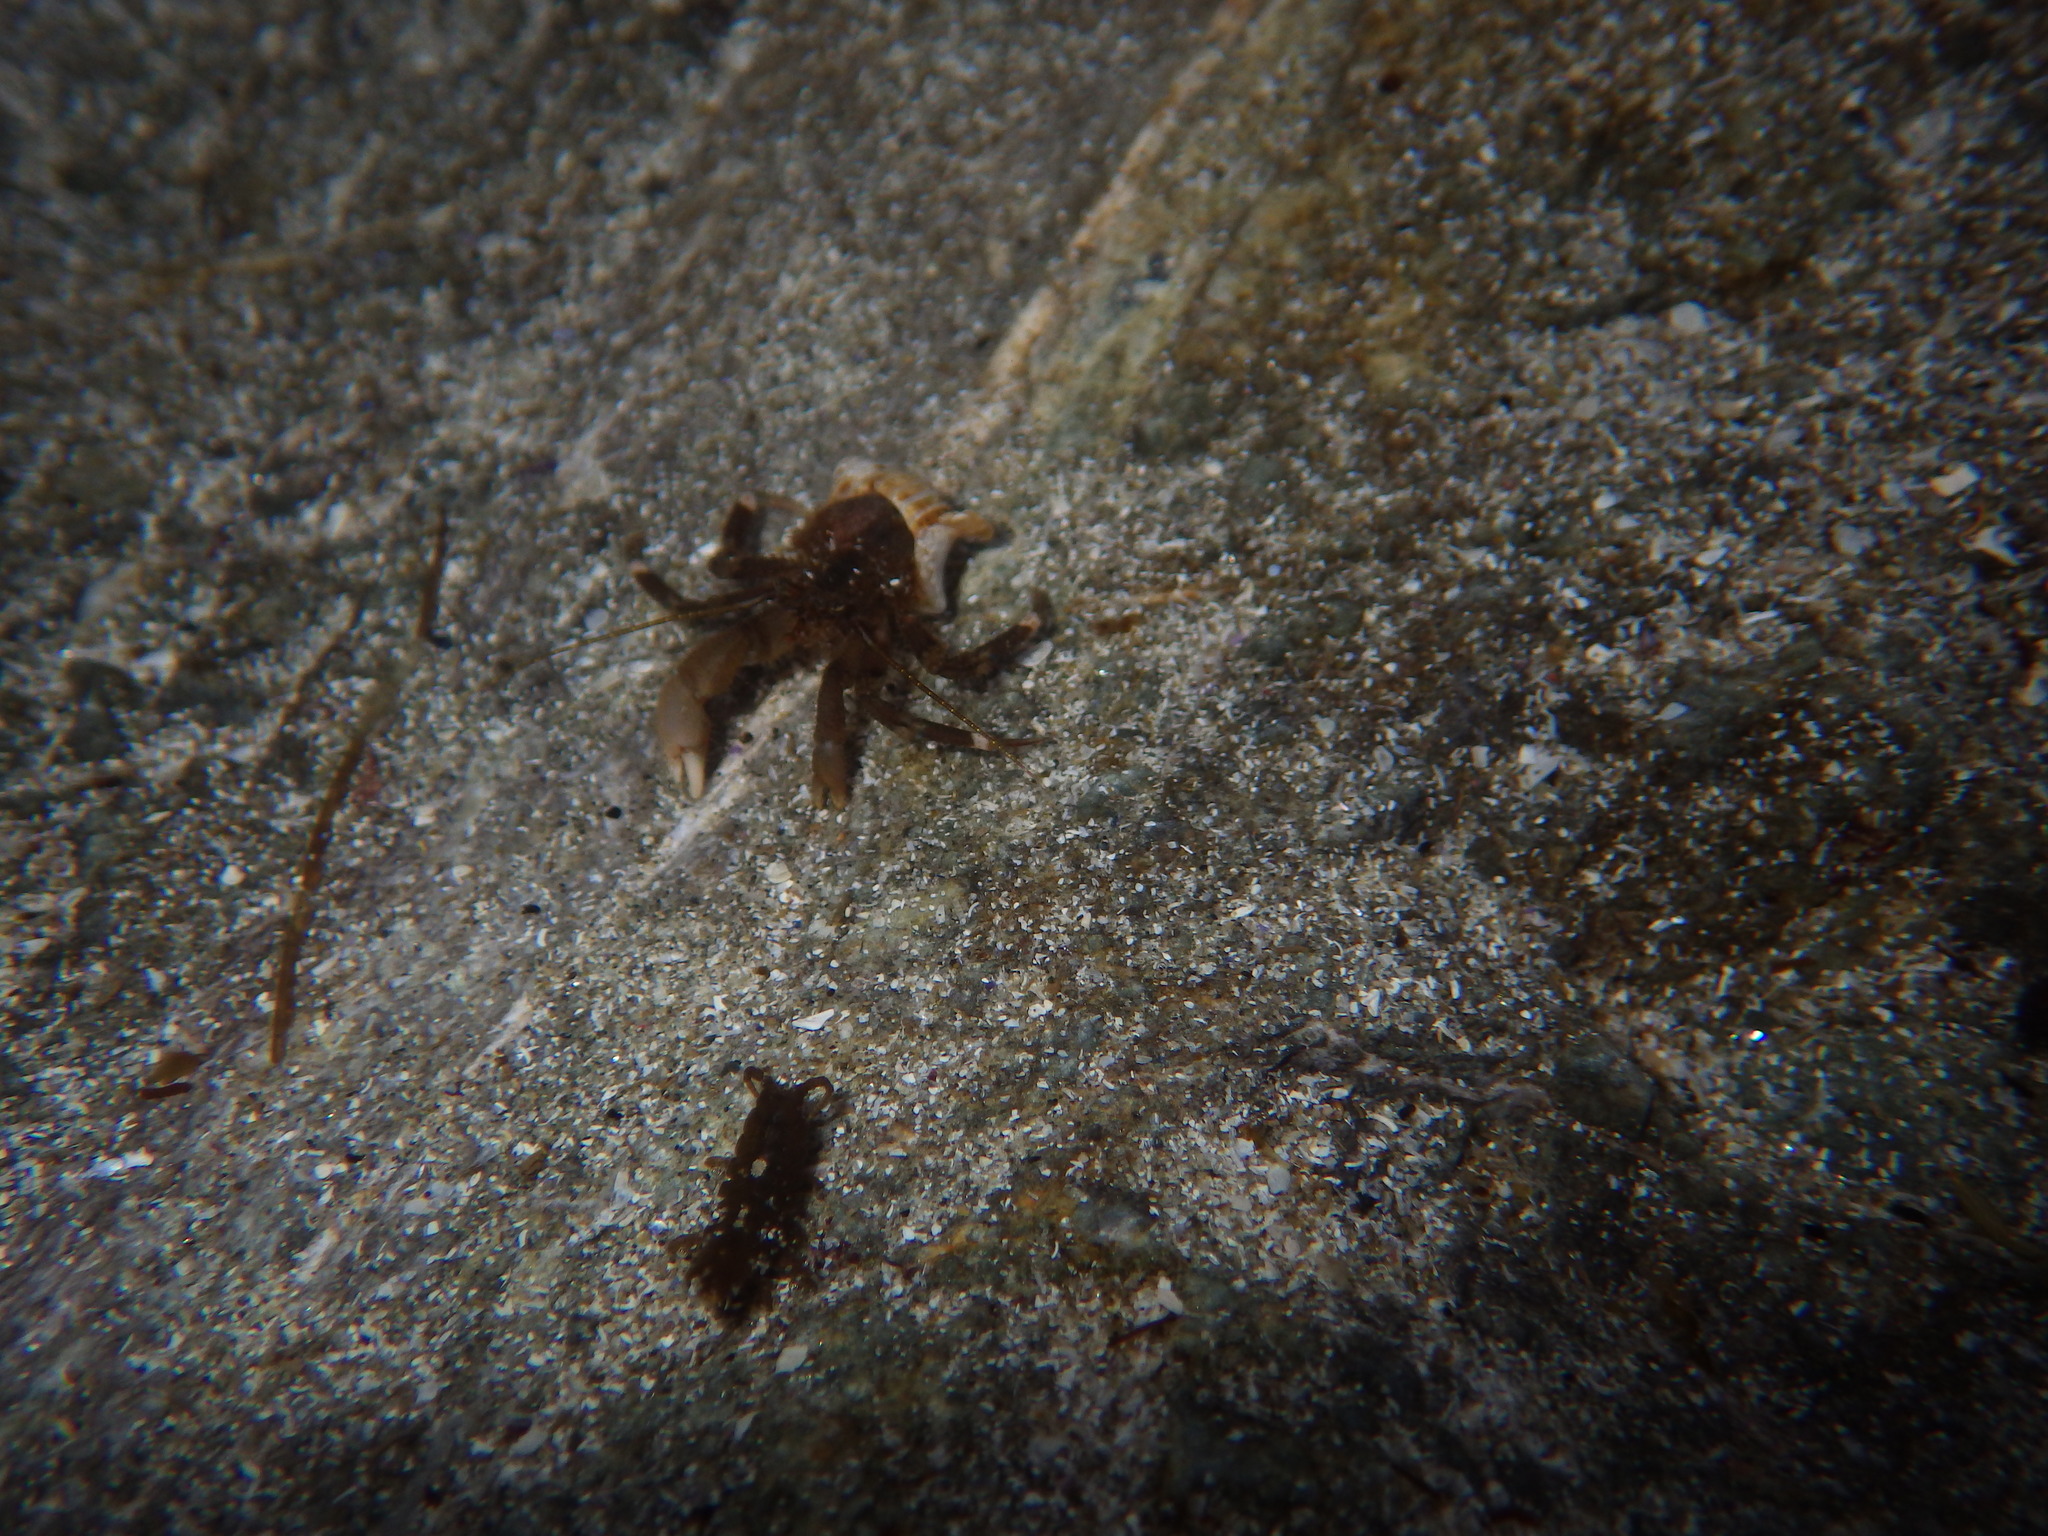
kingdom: Animalia
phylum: Arthropoda
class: Malacostraca
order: Decapoda
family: Paguridae
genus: Pagurus
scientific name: Pagurus hirsutiusculus
